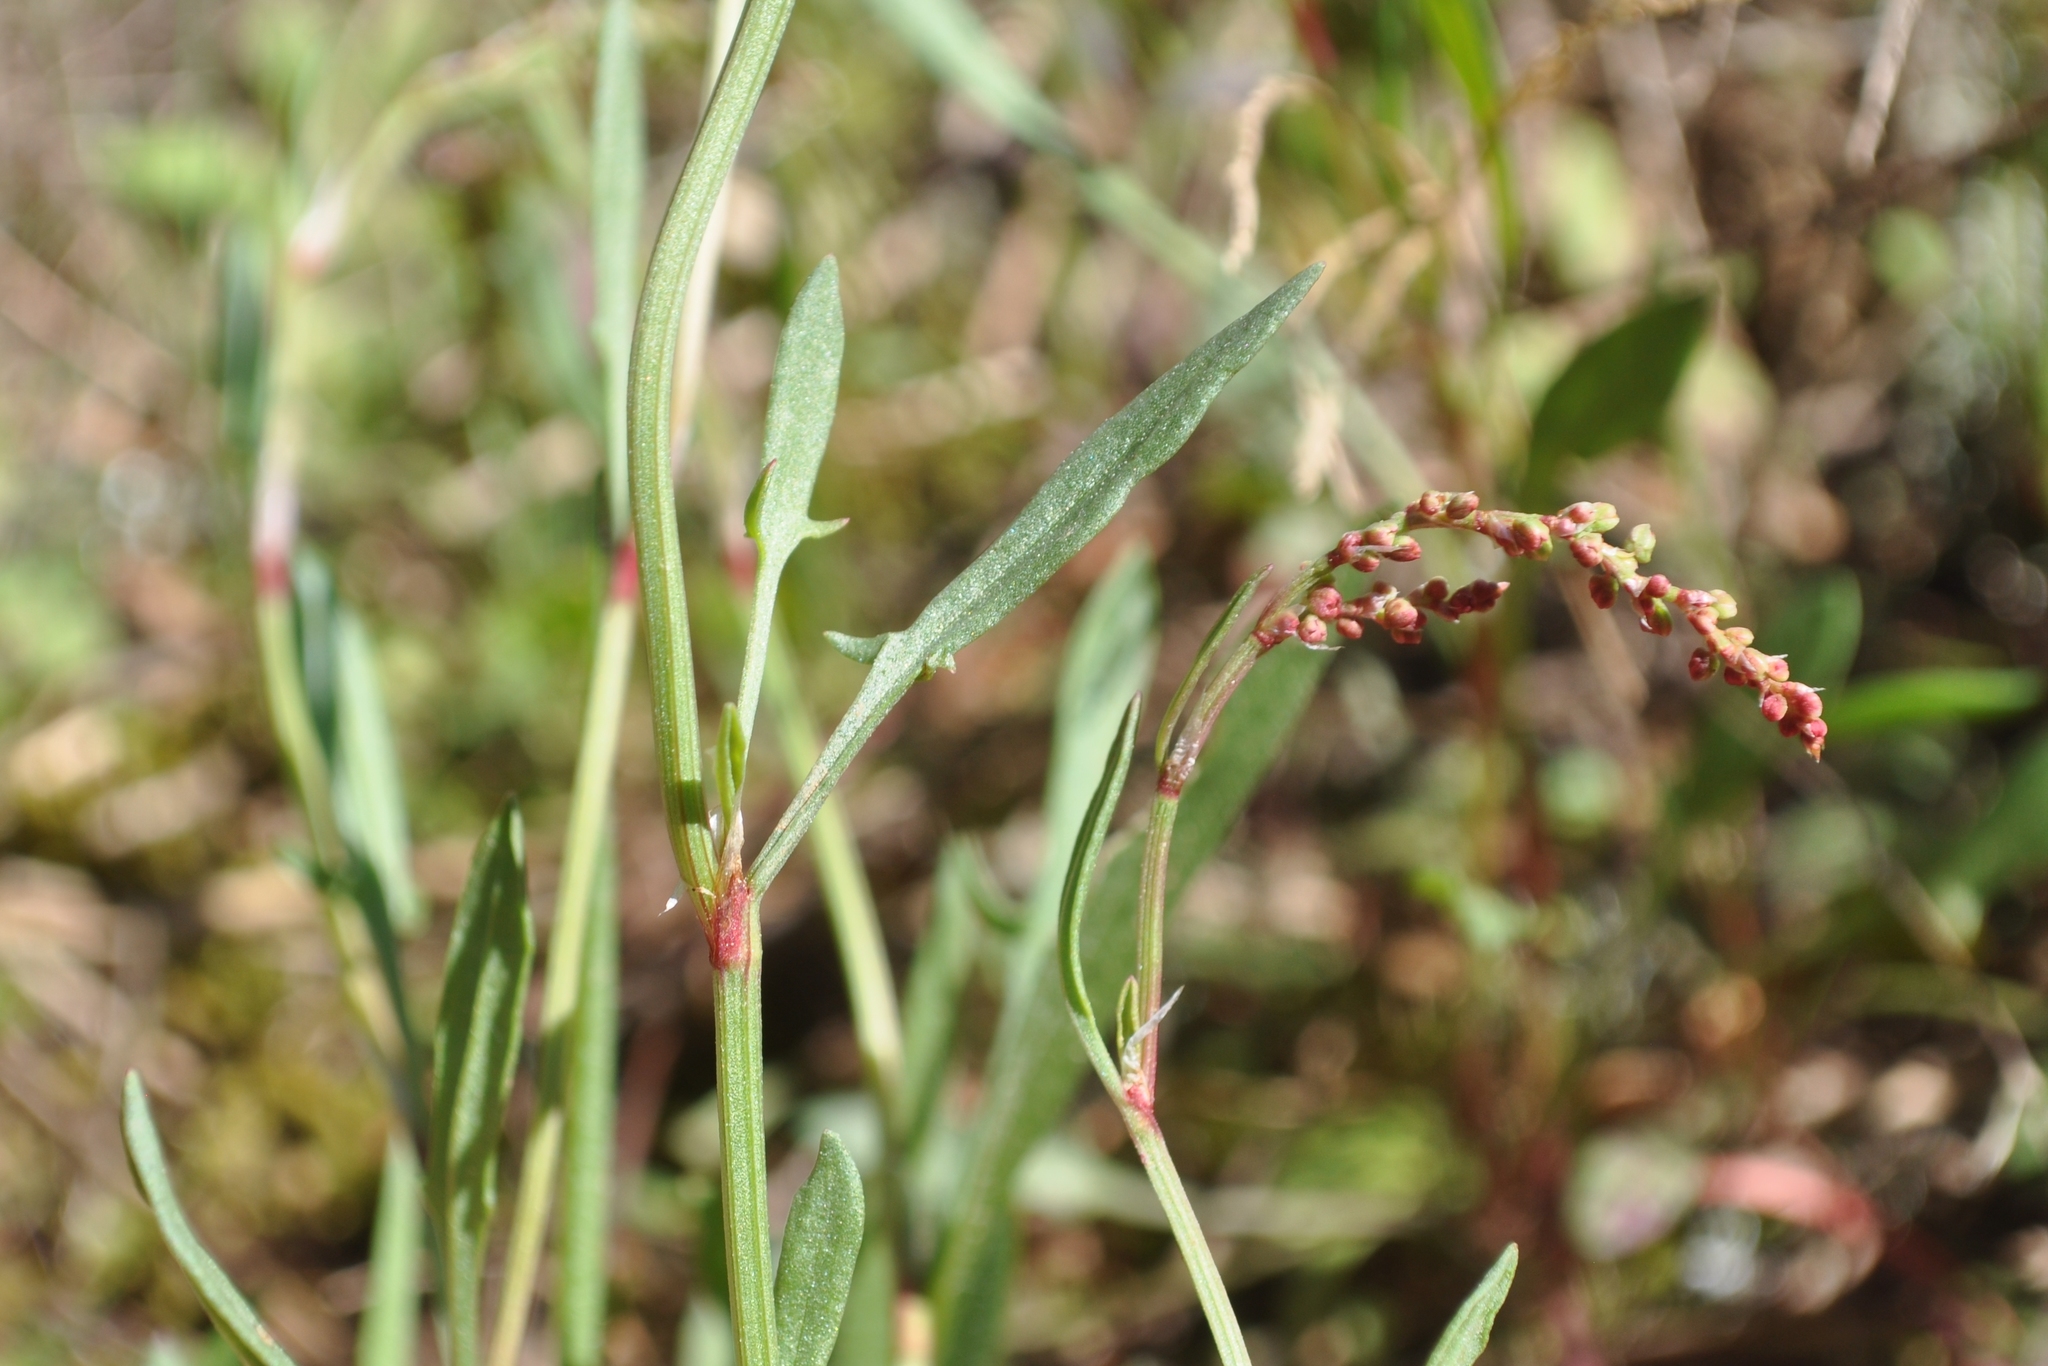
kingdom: Plantae
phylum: Tracheophyta
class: Magnoliopsida
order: Caryophyllales
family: Polygonaceae
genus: Rumex
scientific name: Rumex acetosella
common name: Common sheep sorrel
